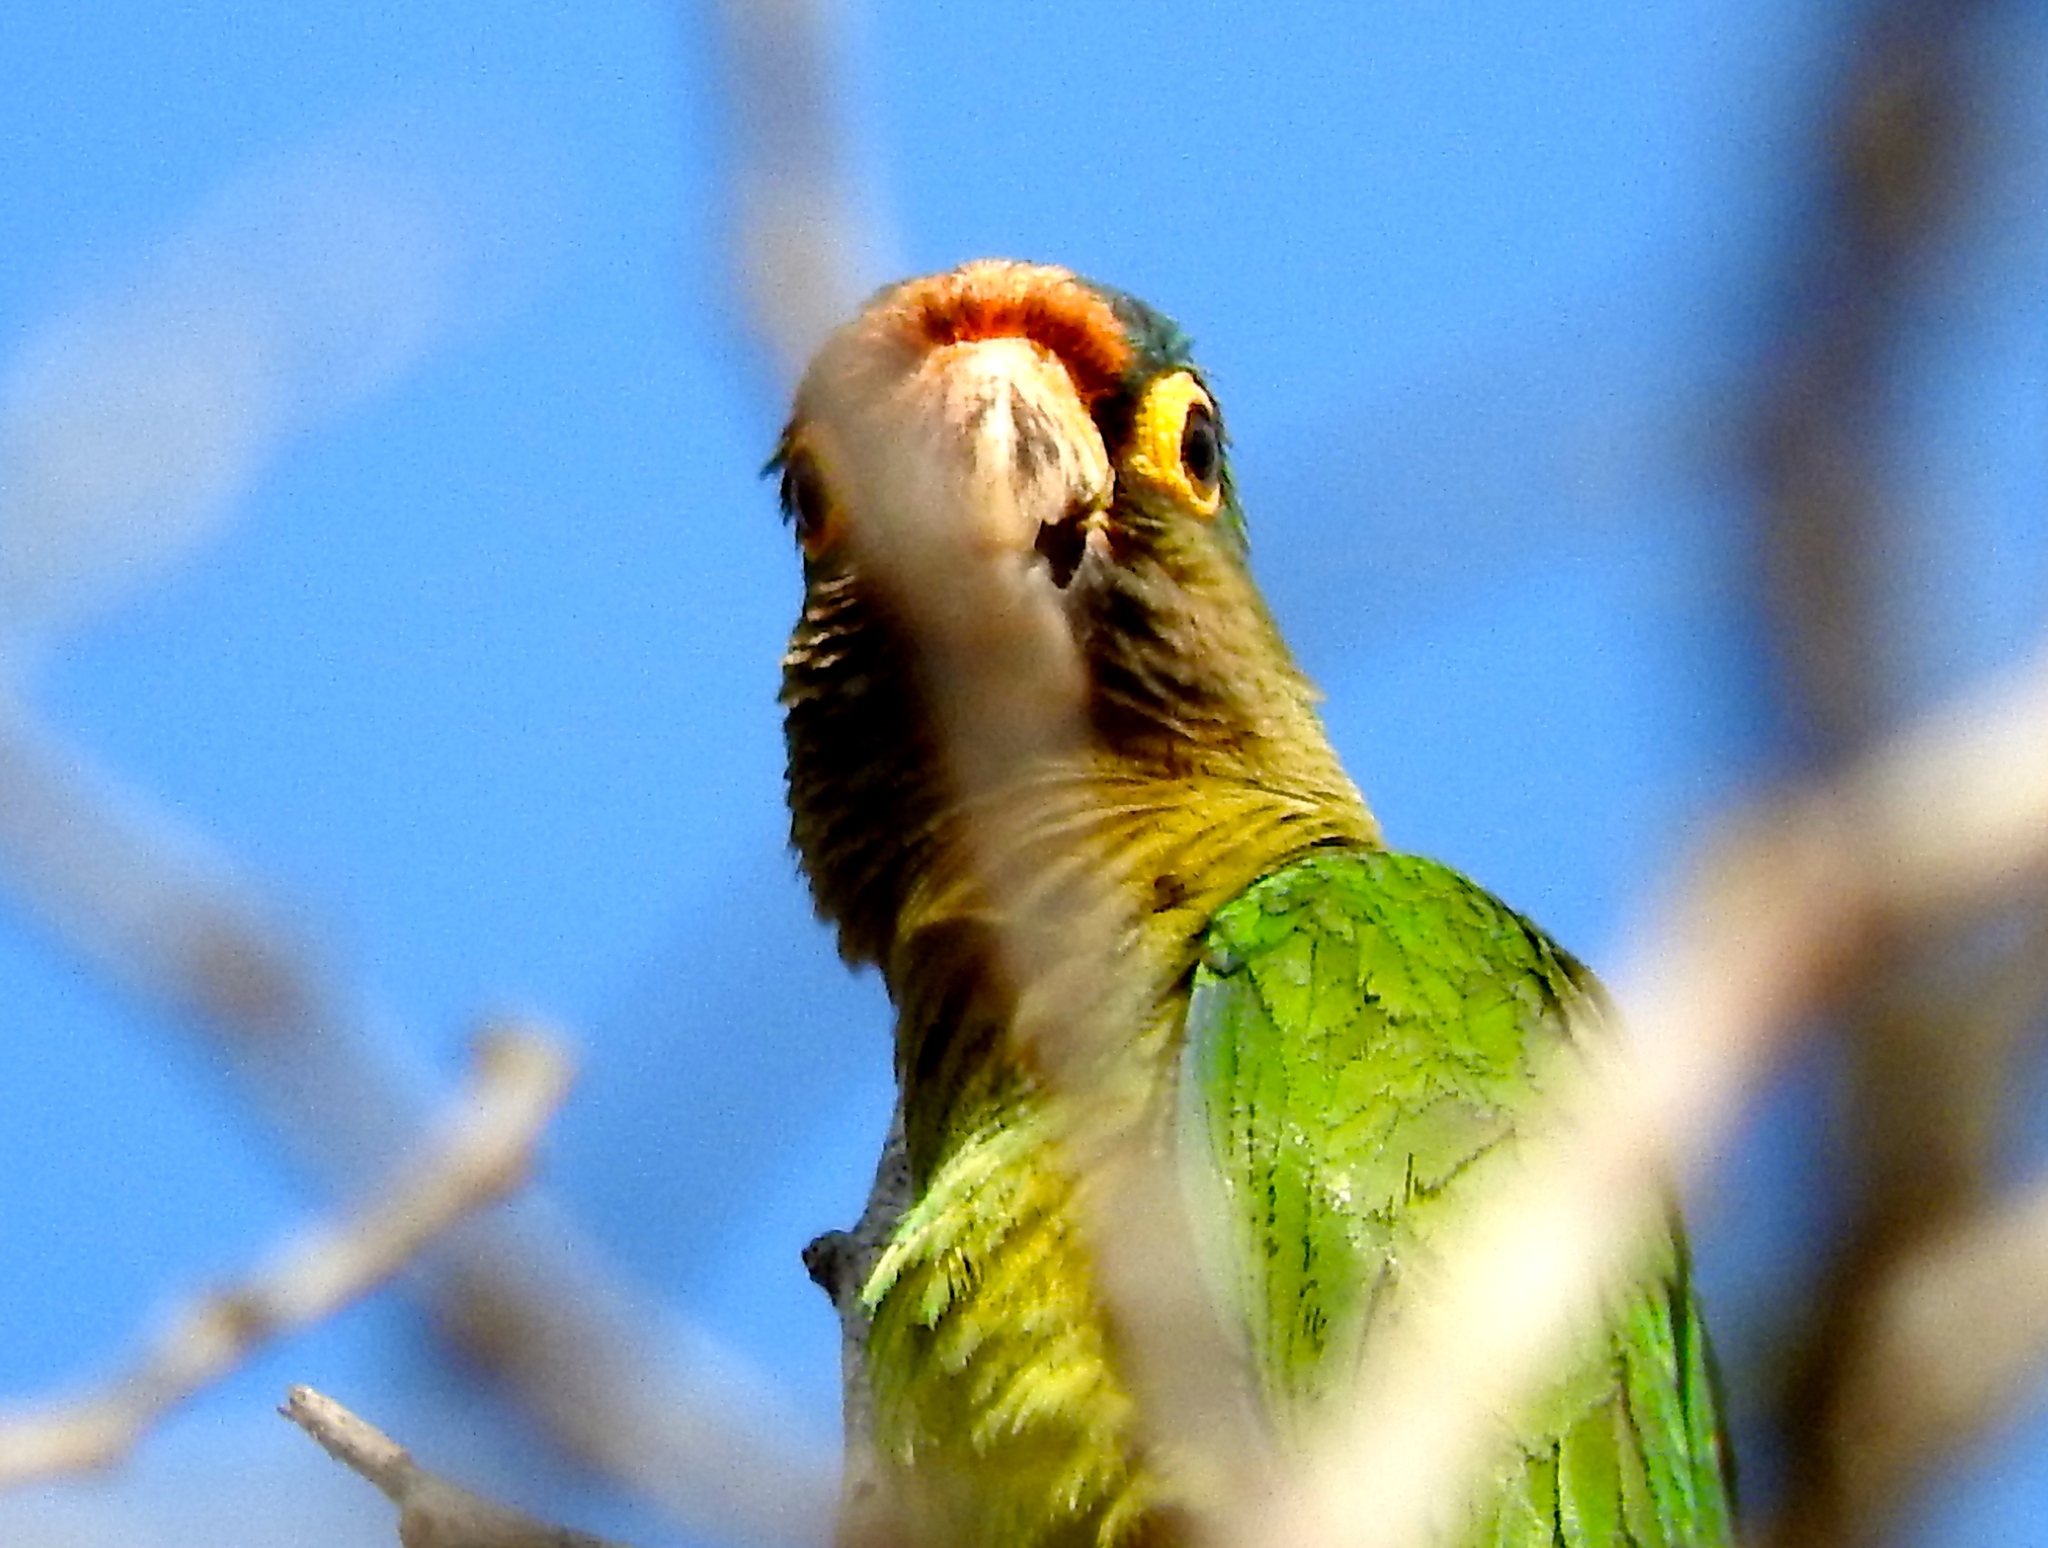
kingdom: Animalia
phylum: Chordata
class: Aves
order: Psittaciformes
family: Psittacidae
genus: Aratinga
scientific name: Aratinga canicularis
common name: Orange-fronted parakeet
